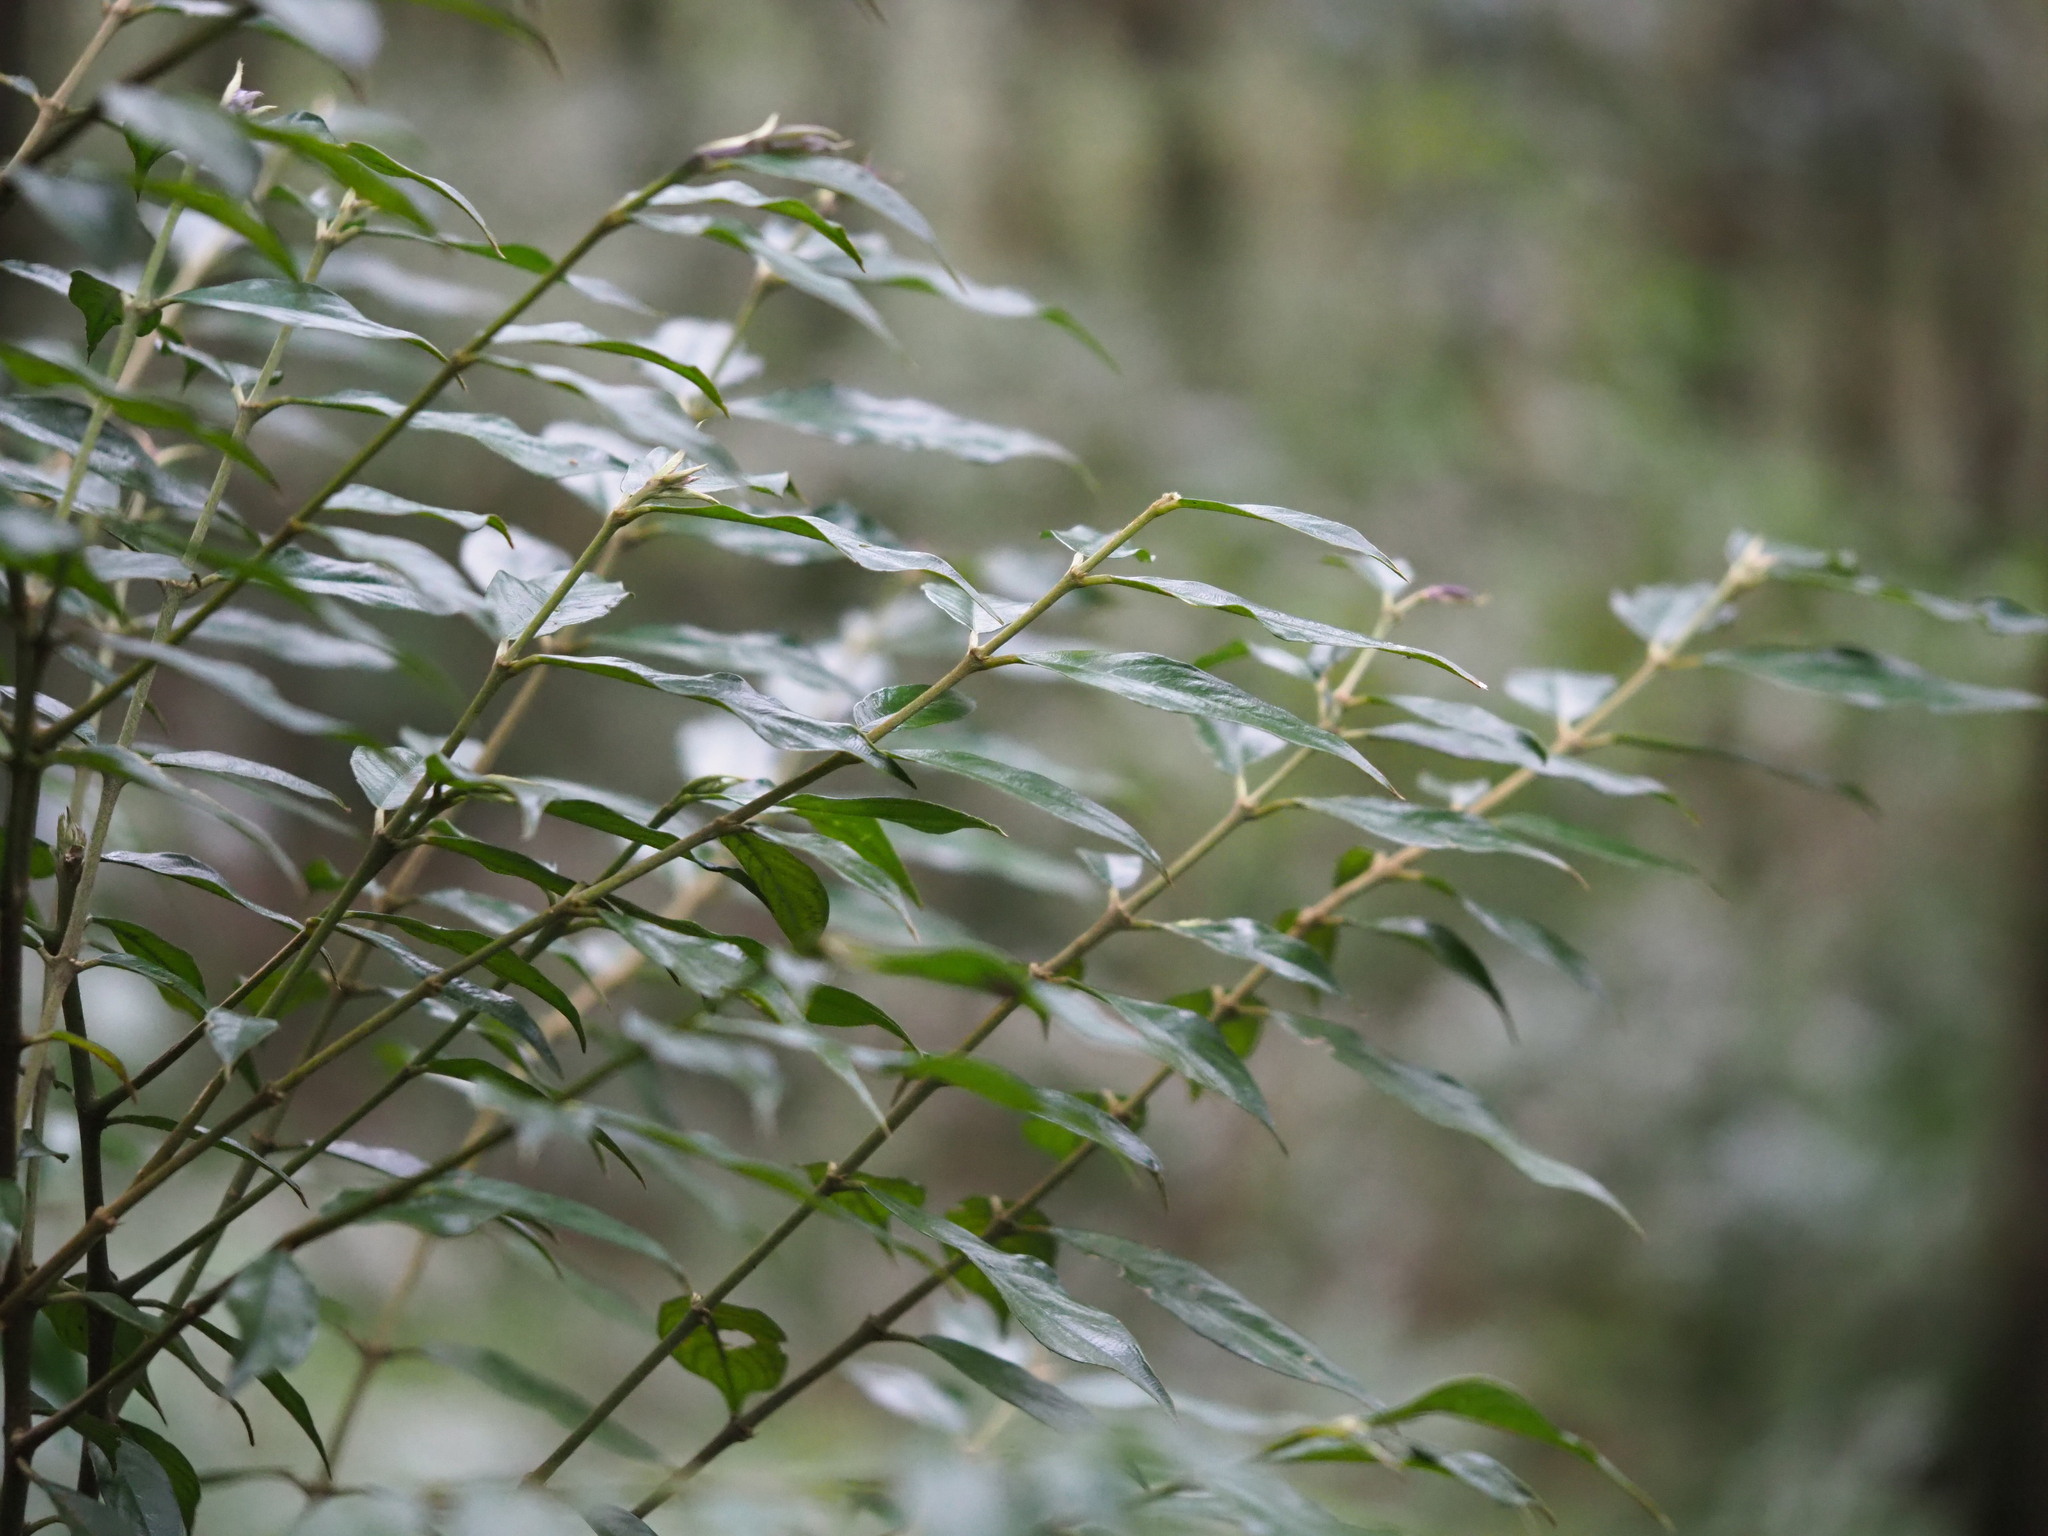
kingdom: Plantae
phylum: Tracheophyta
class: Magnoliopsida
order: Gentianales
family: Rubiaceae
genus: Lasianthus
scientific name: Lasianthus henryi
